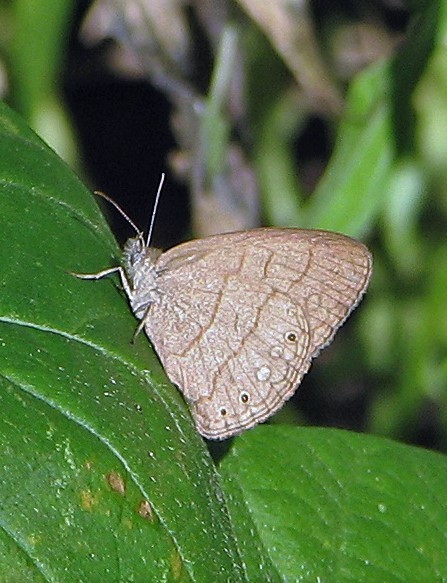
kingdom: Animalia
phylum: Arthropoda
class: Insecta
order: Lepidoptera
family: Nymphalidae
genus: Hermeuptychia
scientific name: Hermeuptychia isabella
